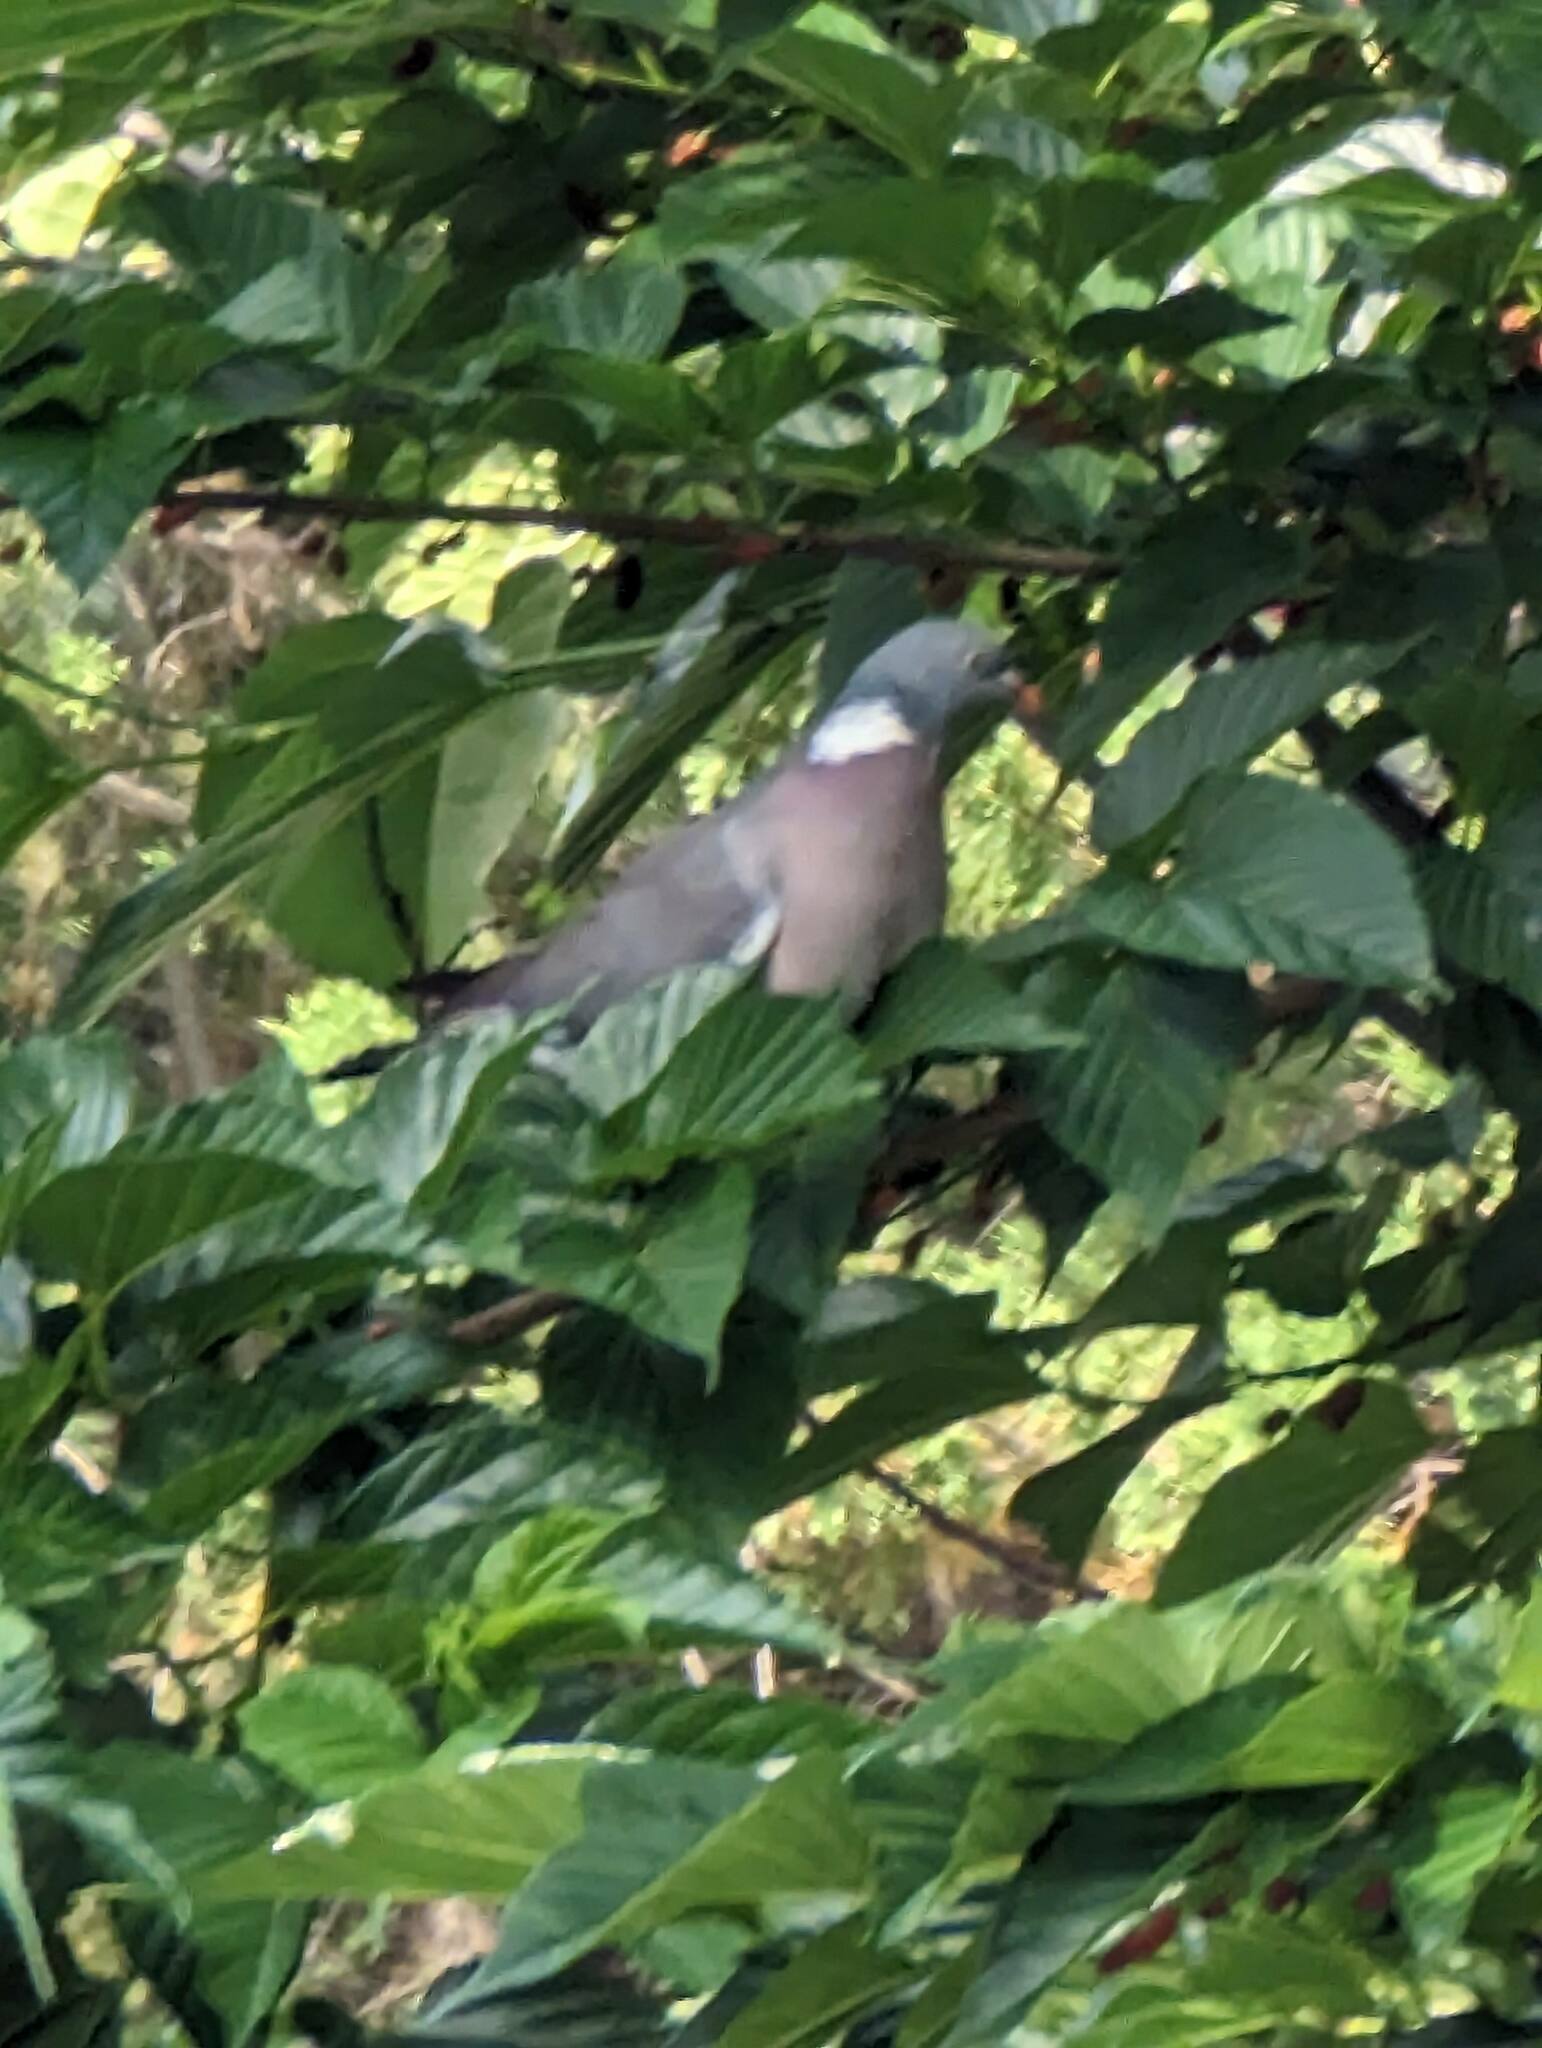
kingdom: Animalia
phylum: Chordata
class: Aves
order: Columbiformes
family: Columbidae
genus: Columba
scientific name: Columba palumbus
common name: Common wood pigeon
